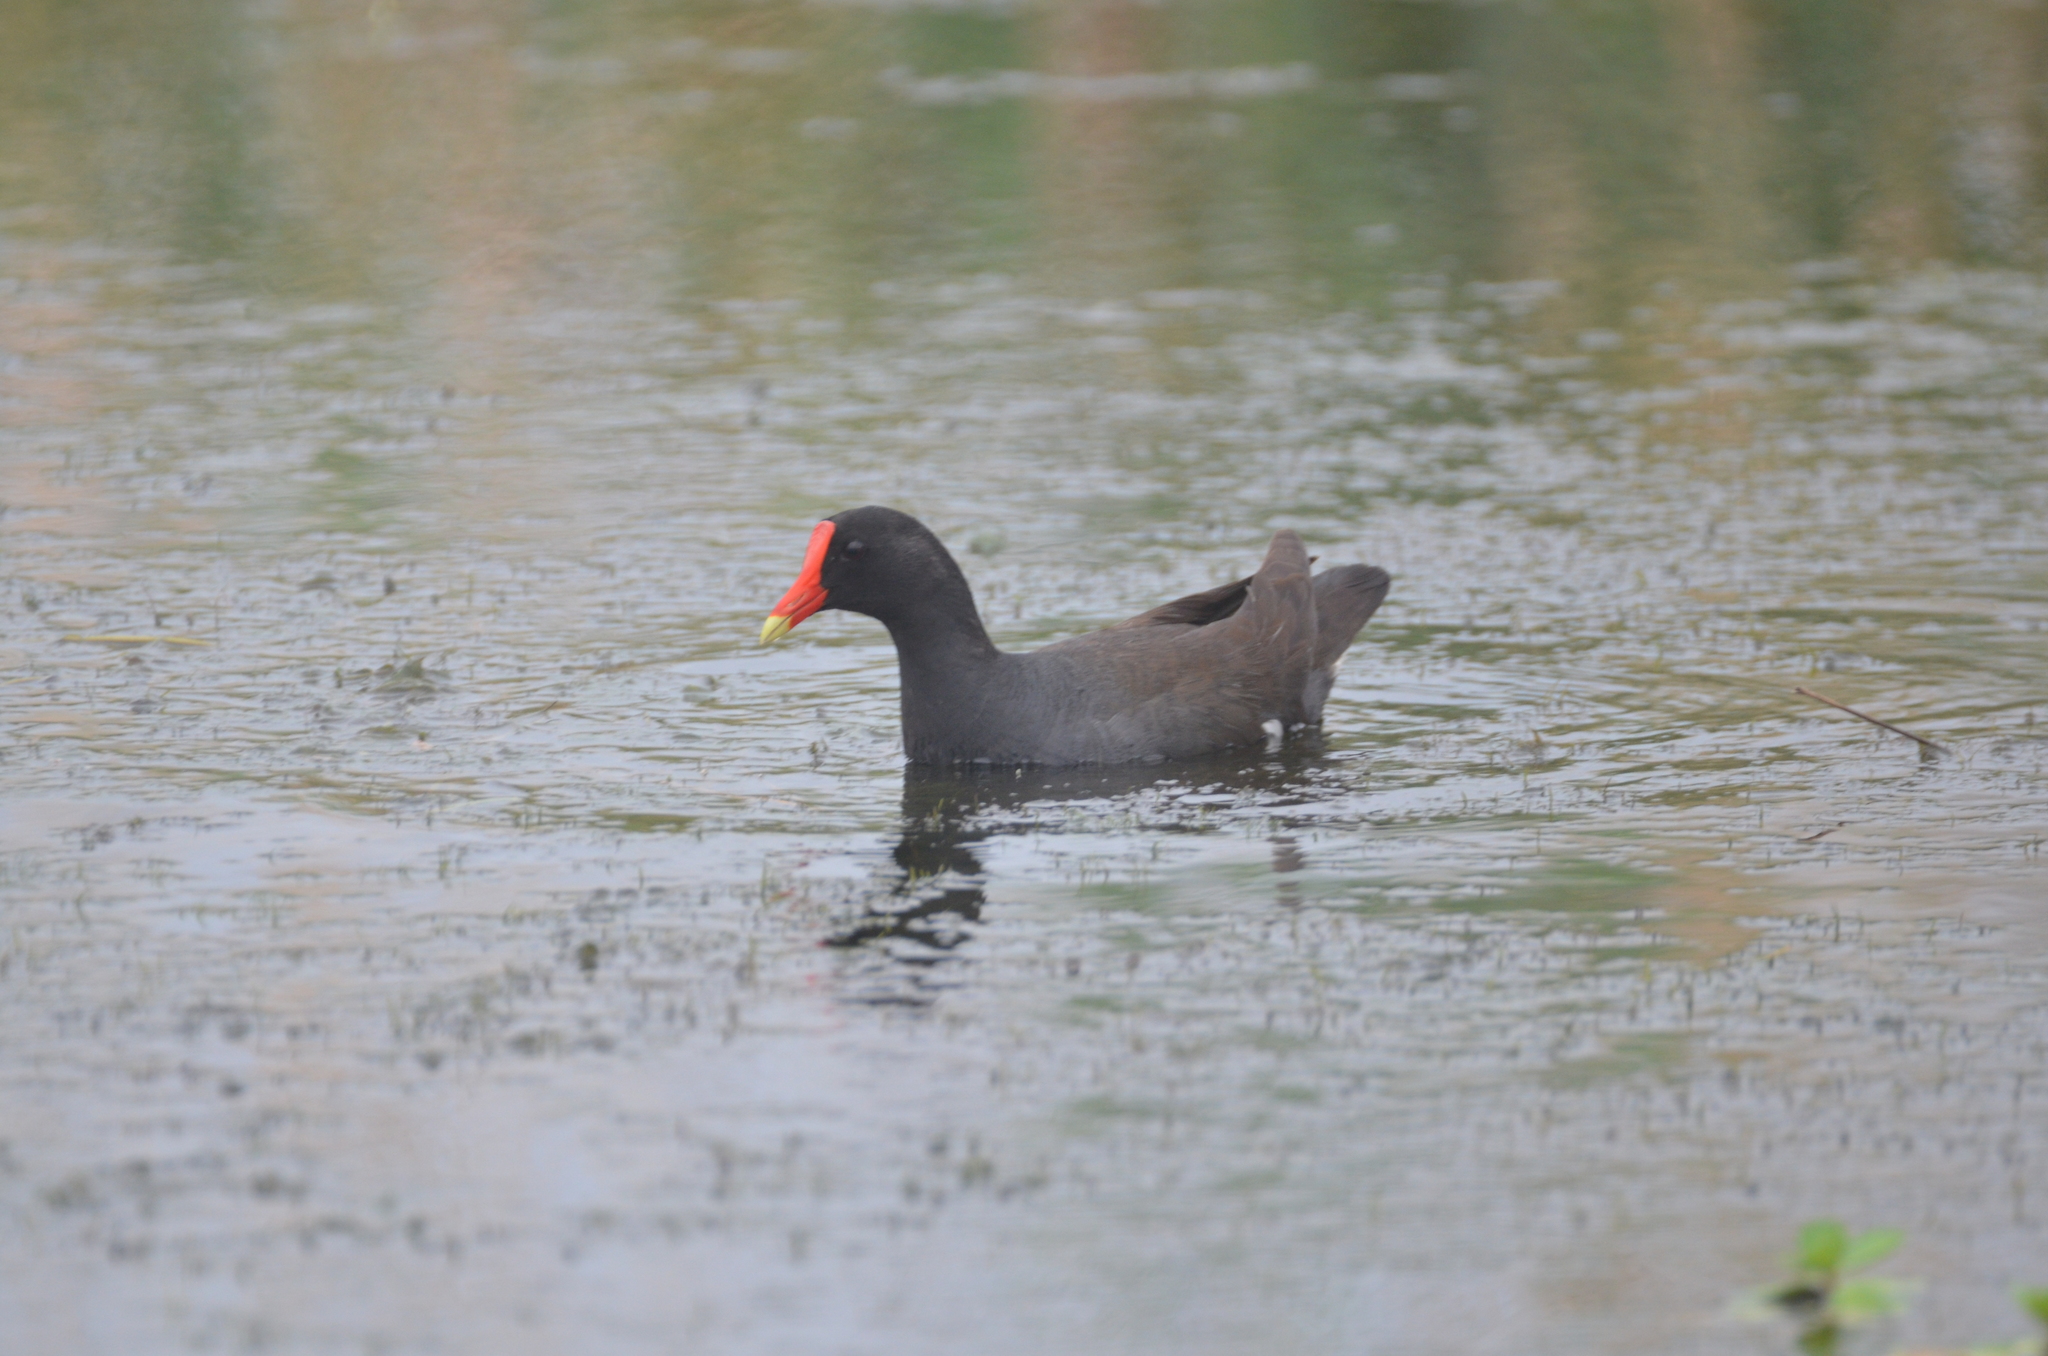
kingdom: Animalia
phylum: Chordata
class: Aves
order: Gruiformes
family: Rallidae
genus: Gallinula
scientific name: Gallinula chloropus
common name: Common moorhen
